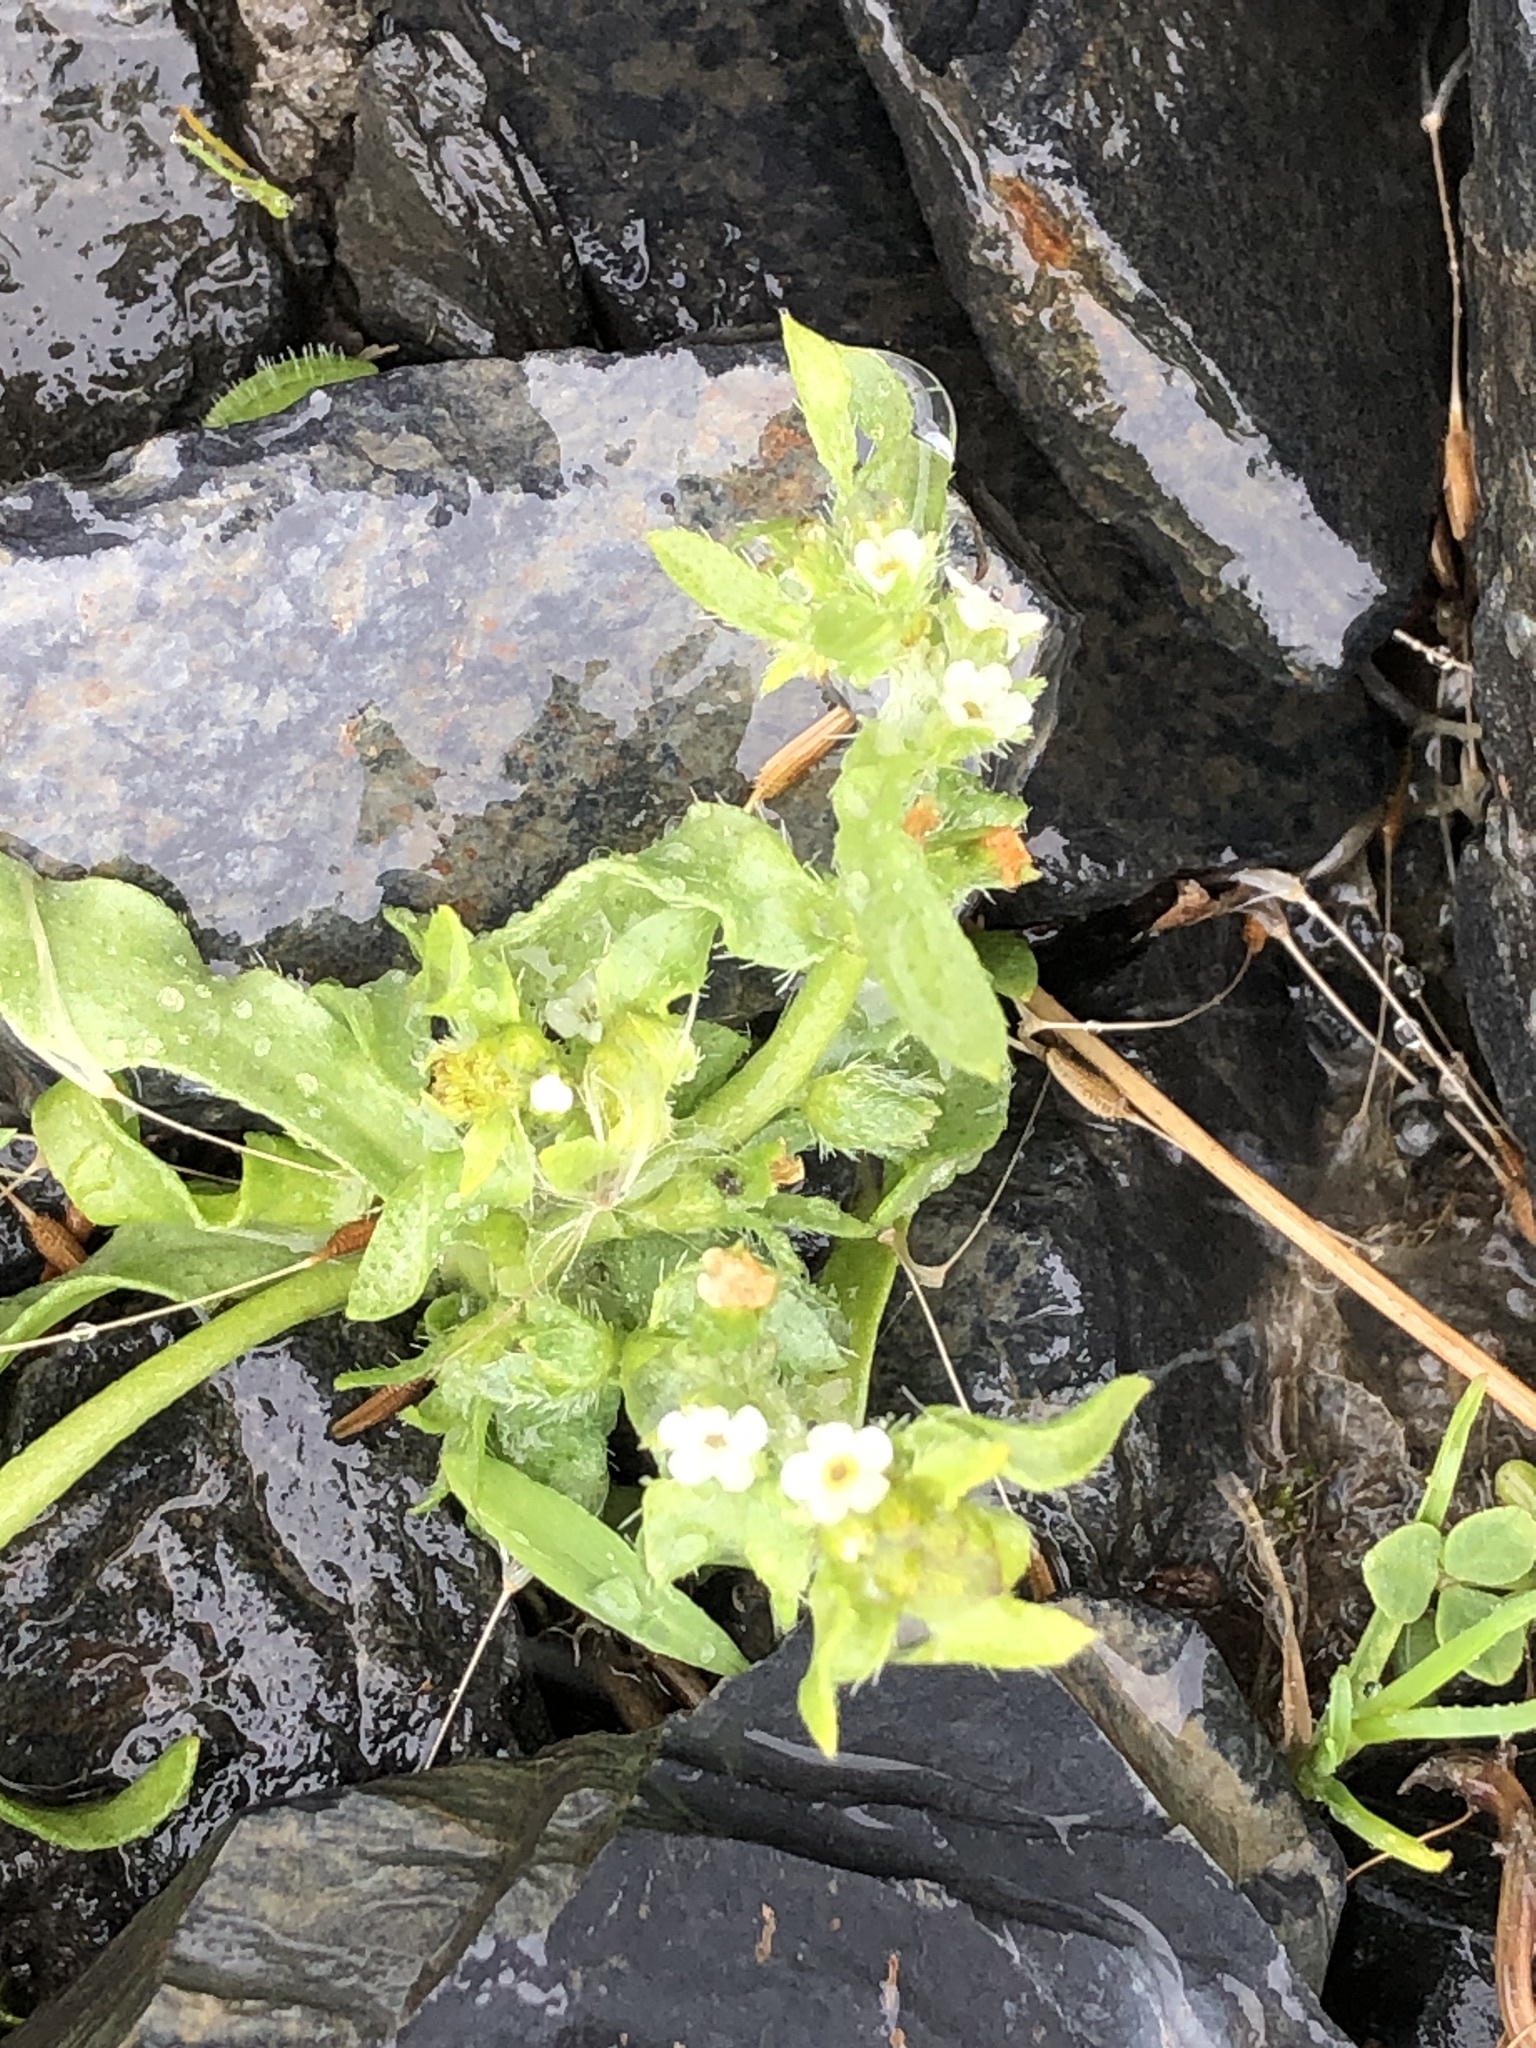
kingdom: Plantae
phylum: Tracheophyta
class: Magnoliopsida
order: Boraginales
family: Boraginaceae
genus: Plagiobothrys
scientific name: Plagiobothrys orientalis
